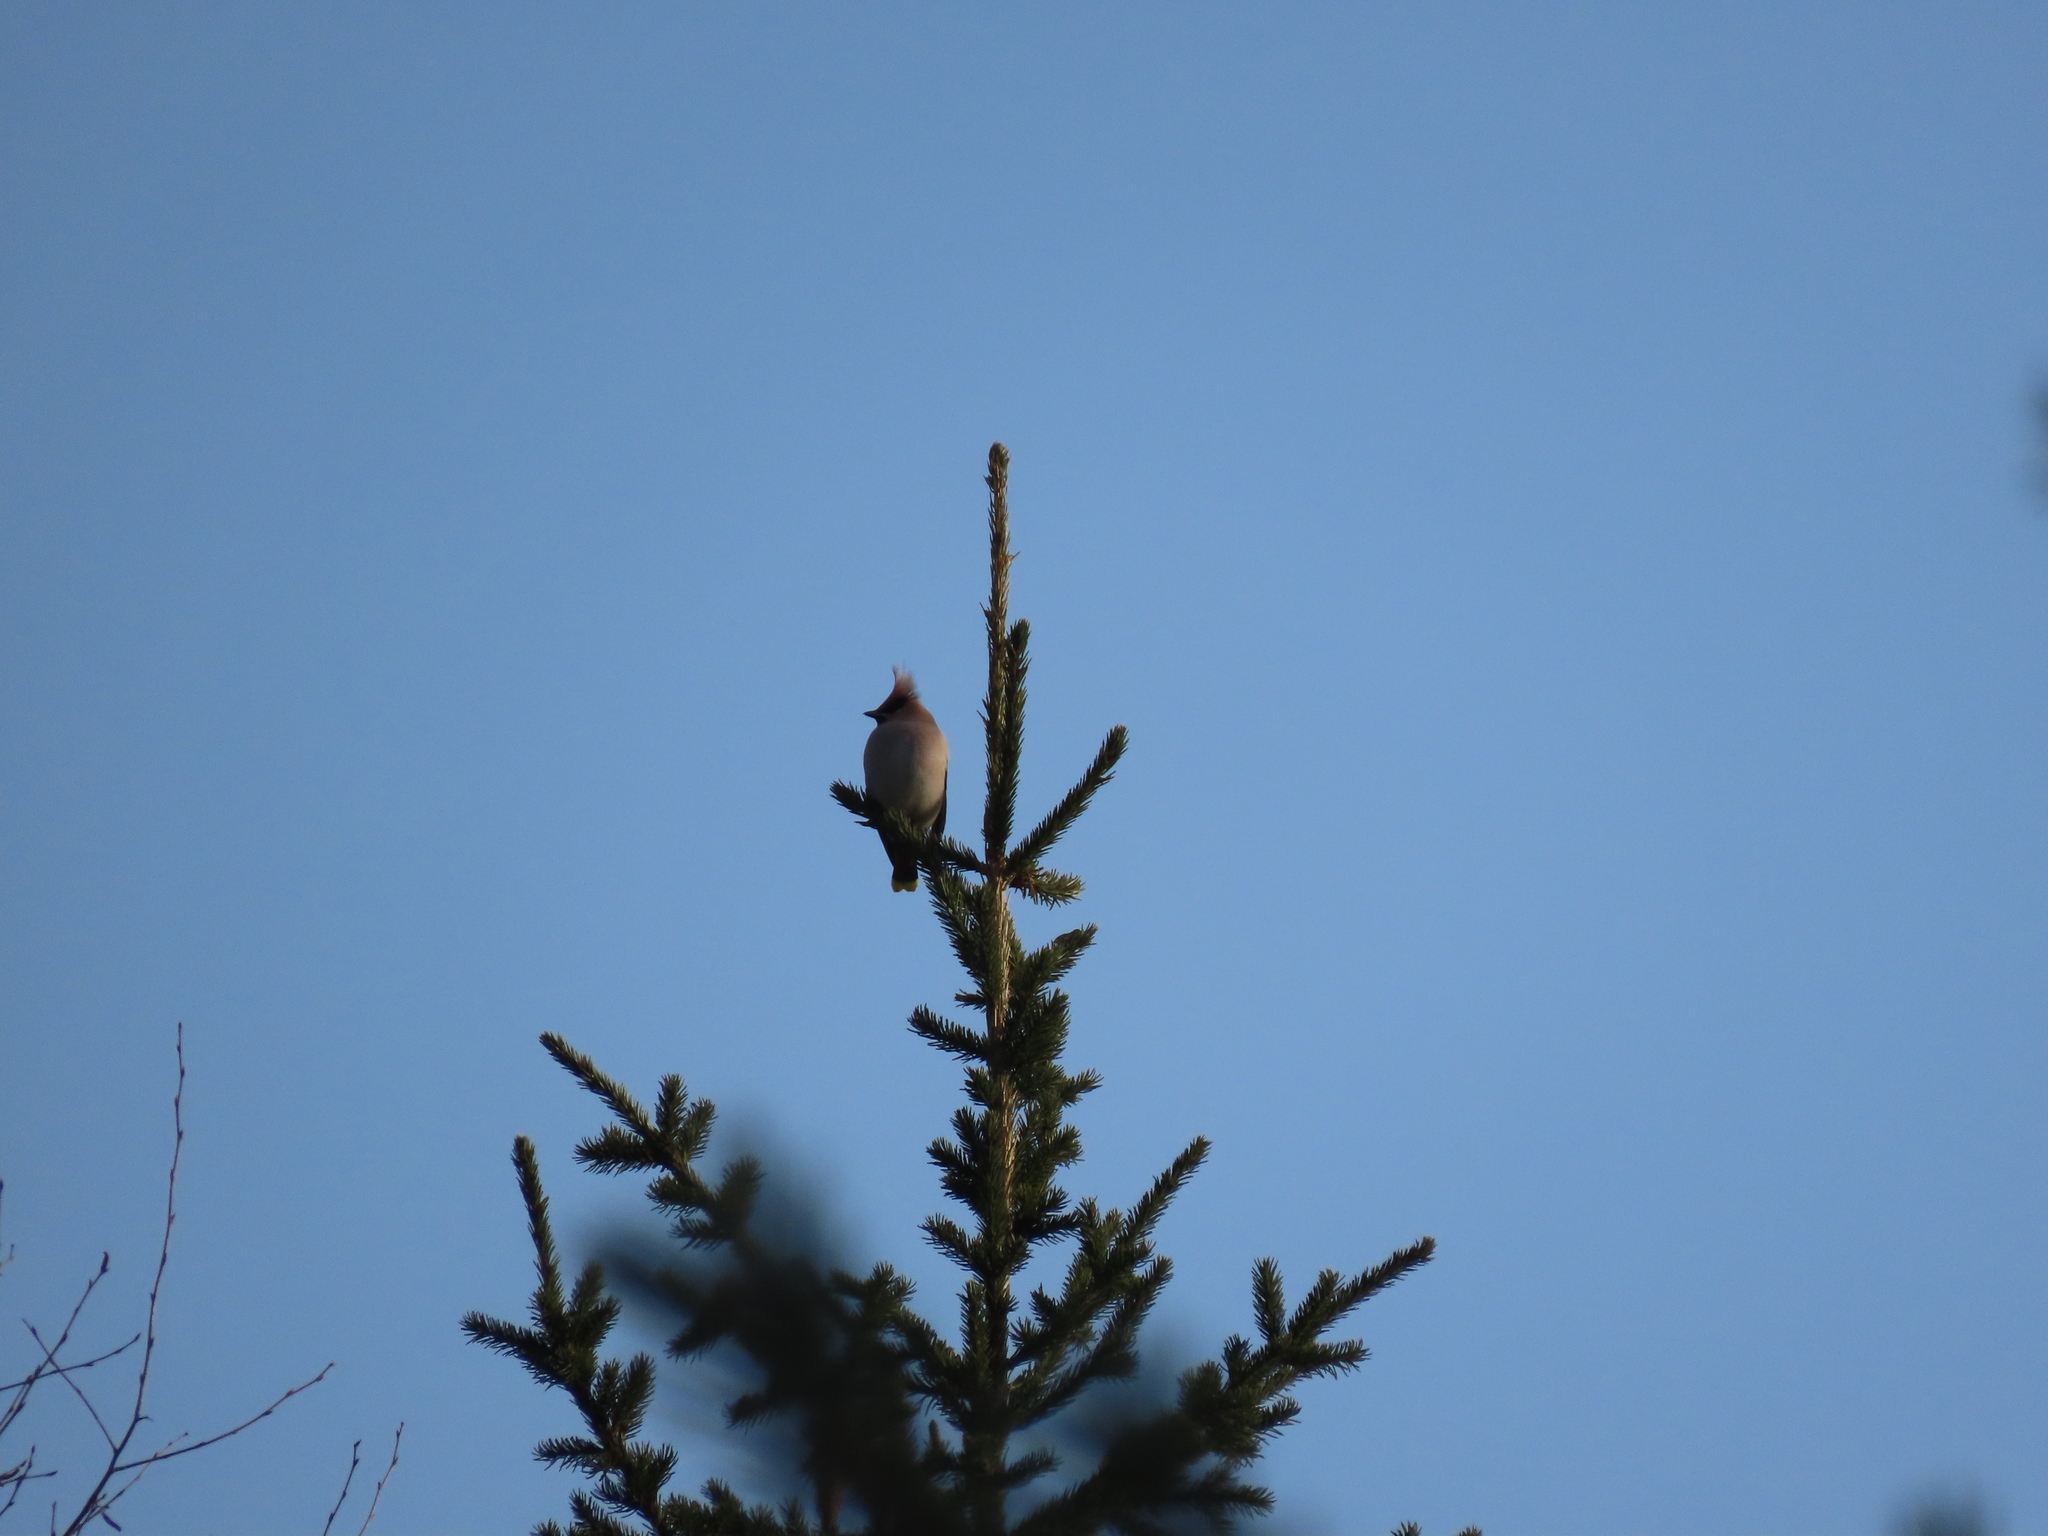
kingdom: Animalia
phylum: Chordata
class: Aves
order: Passeriformes
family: Bombycillidae
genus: Bombycilla
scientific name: Bombycilla garrulus
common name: Bohemian waxwing
